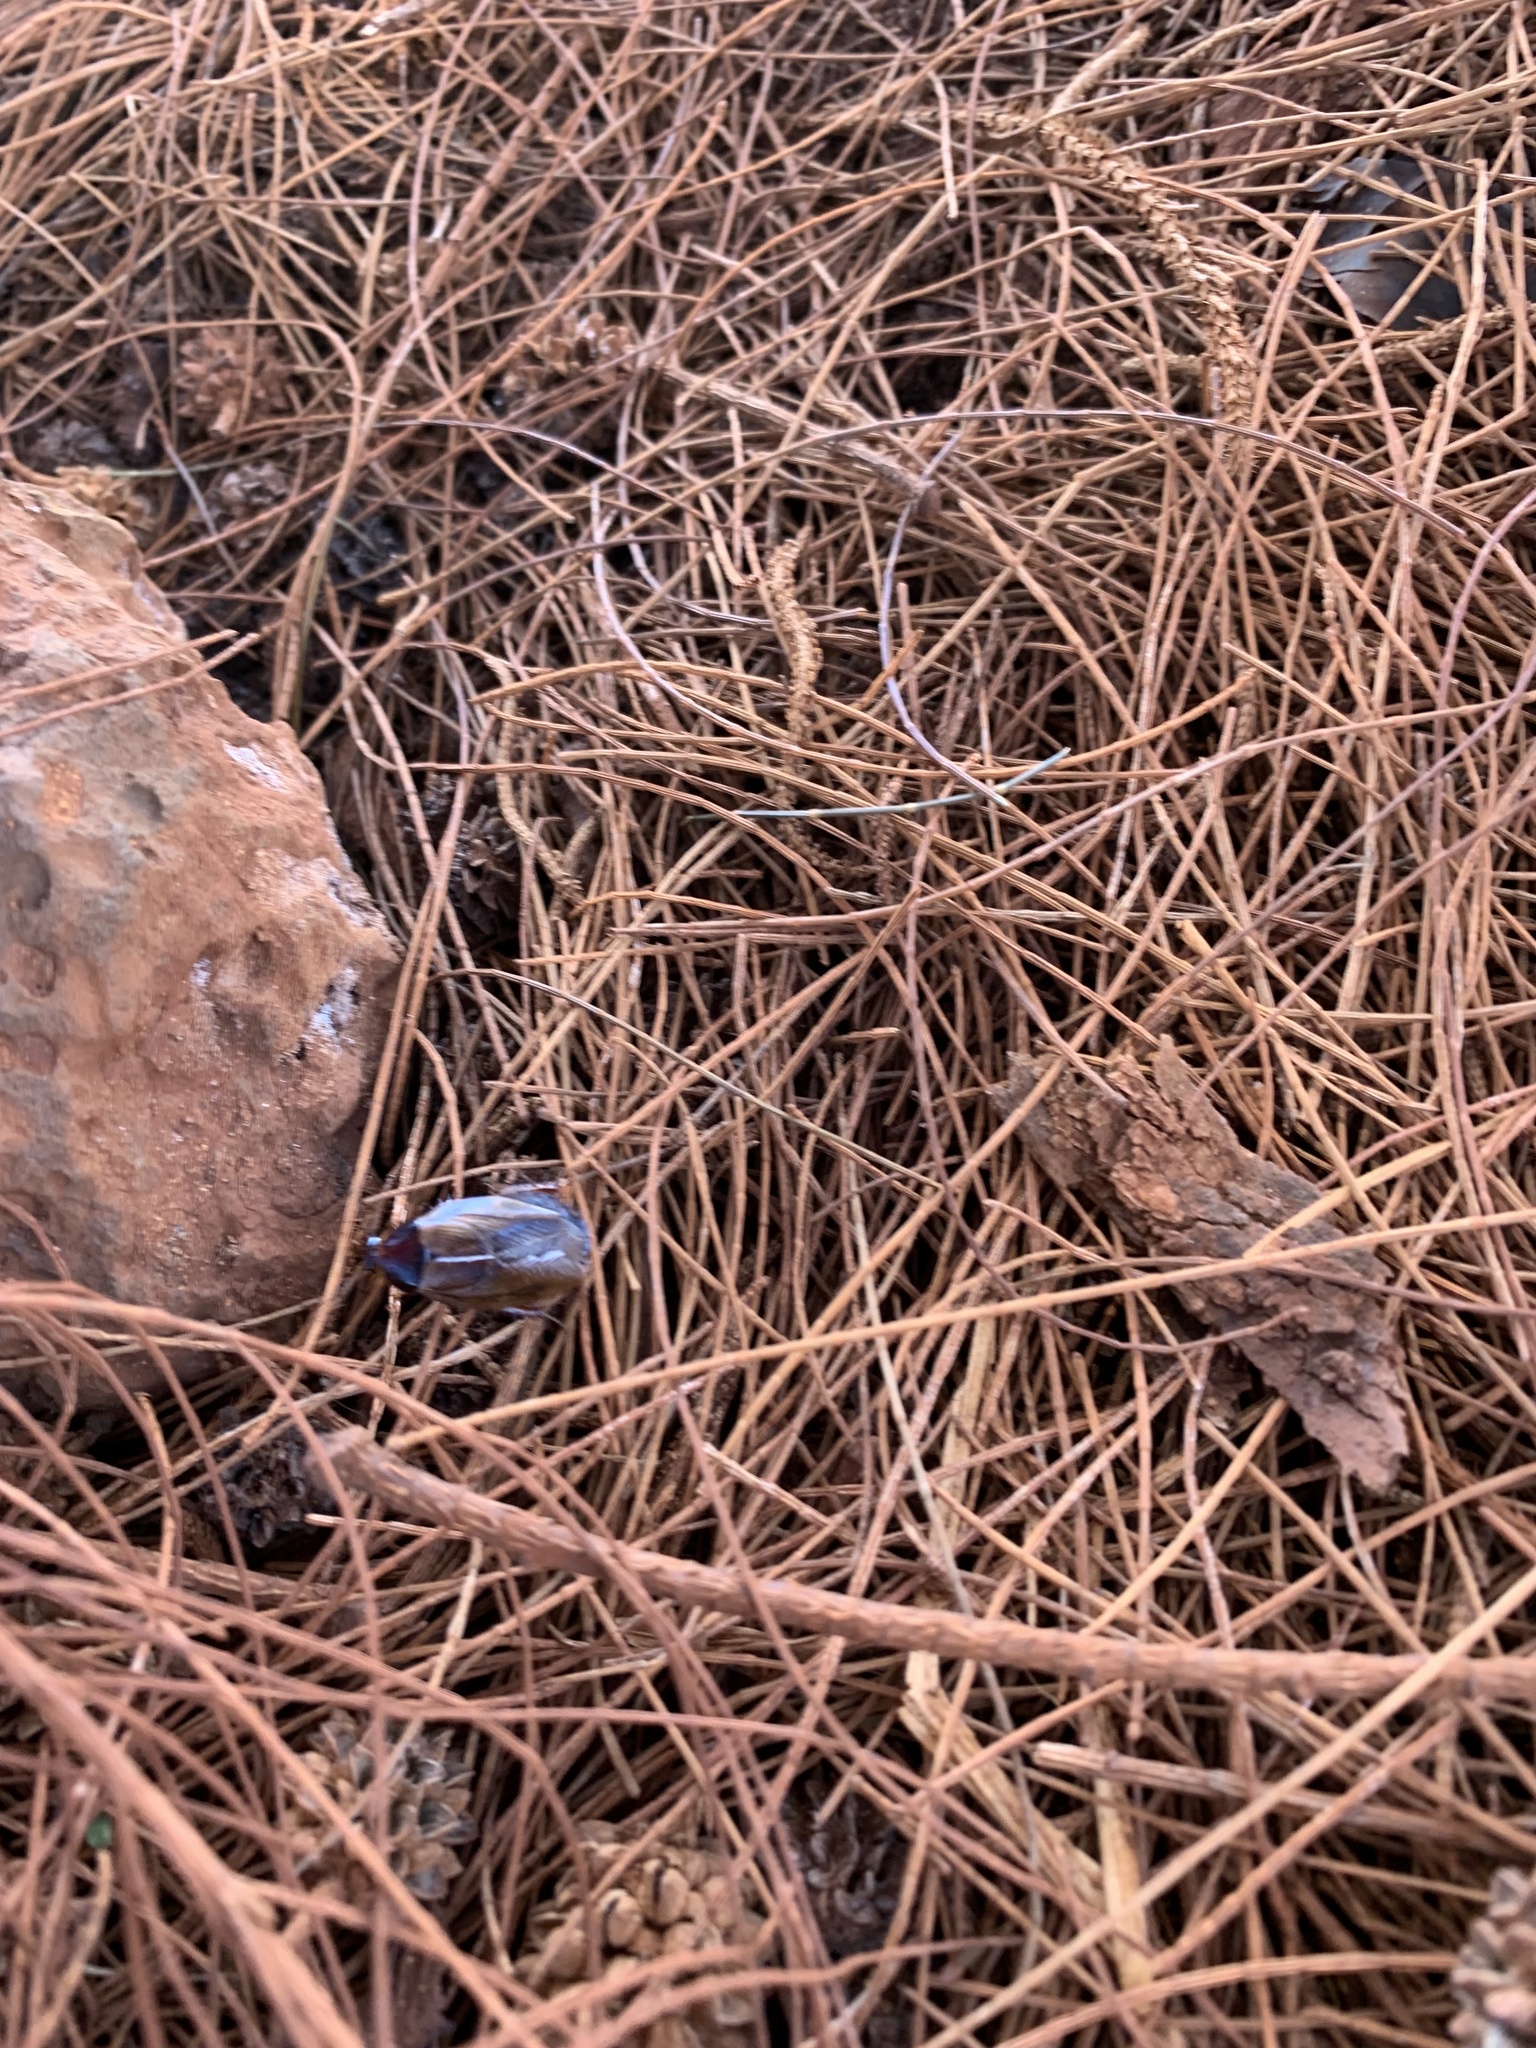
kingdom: Animalia
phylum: Arthropoda
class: Insecta
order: Blattodea
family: Blaberidae
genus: Pycnoscelus
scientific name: Pycnoscelus surinamensis
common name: Surinam cockroach
